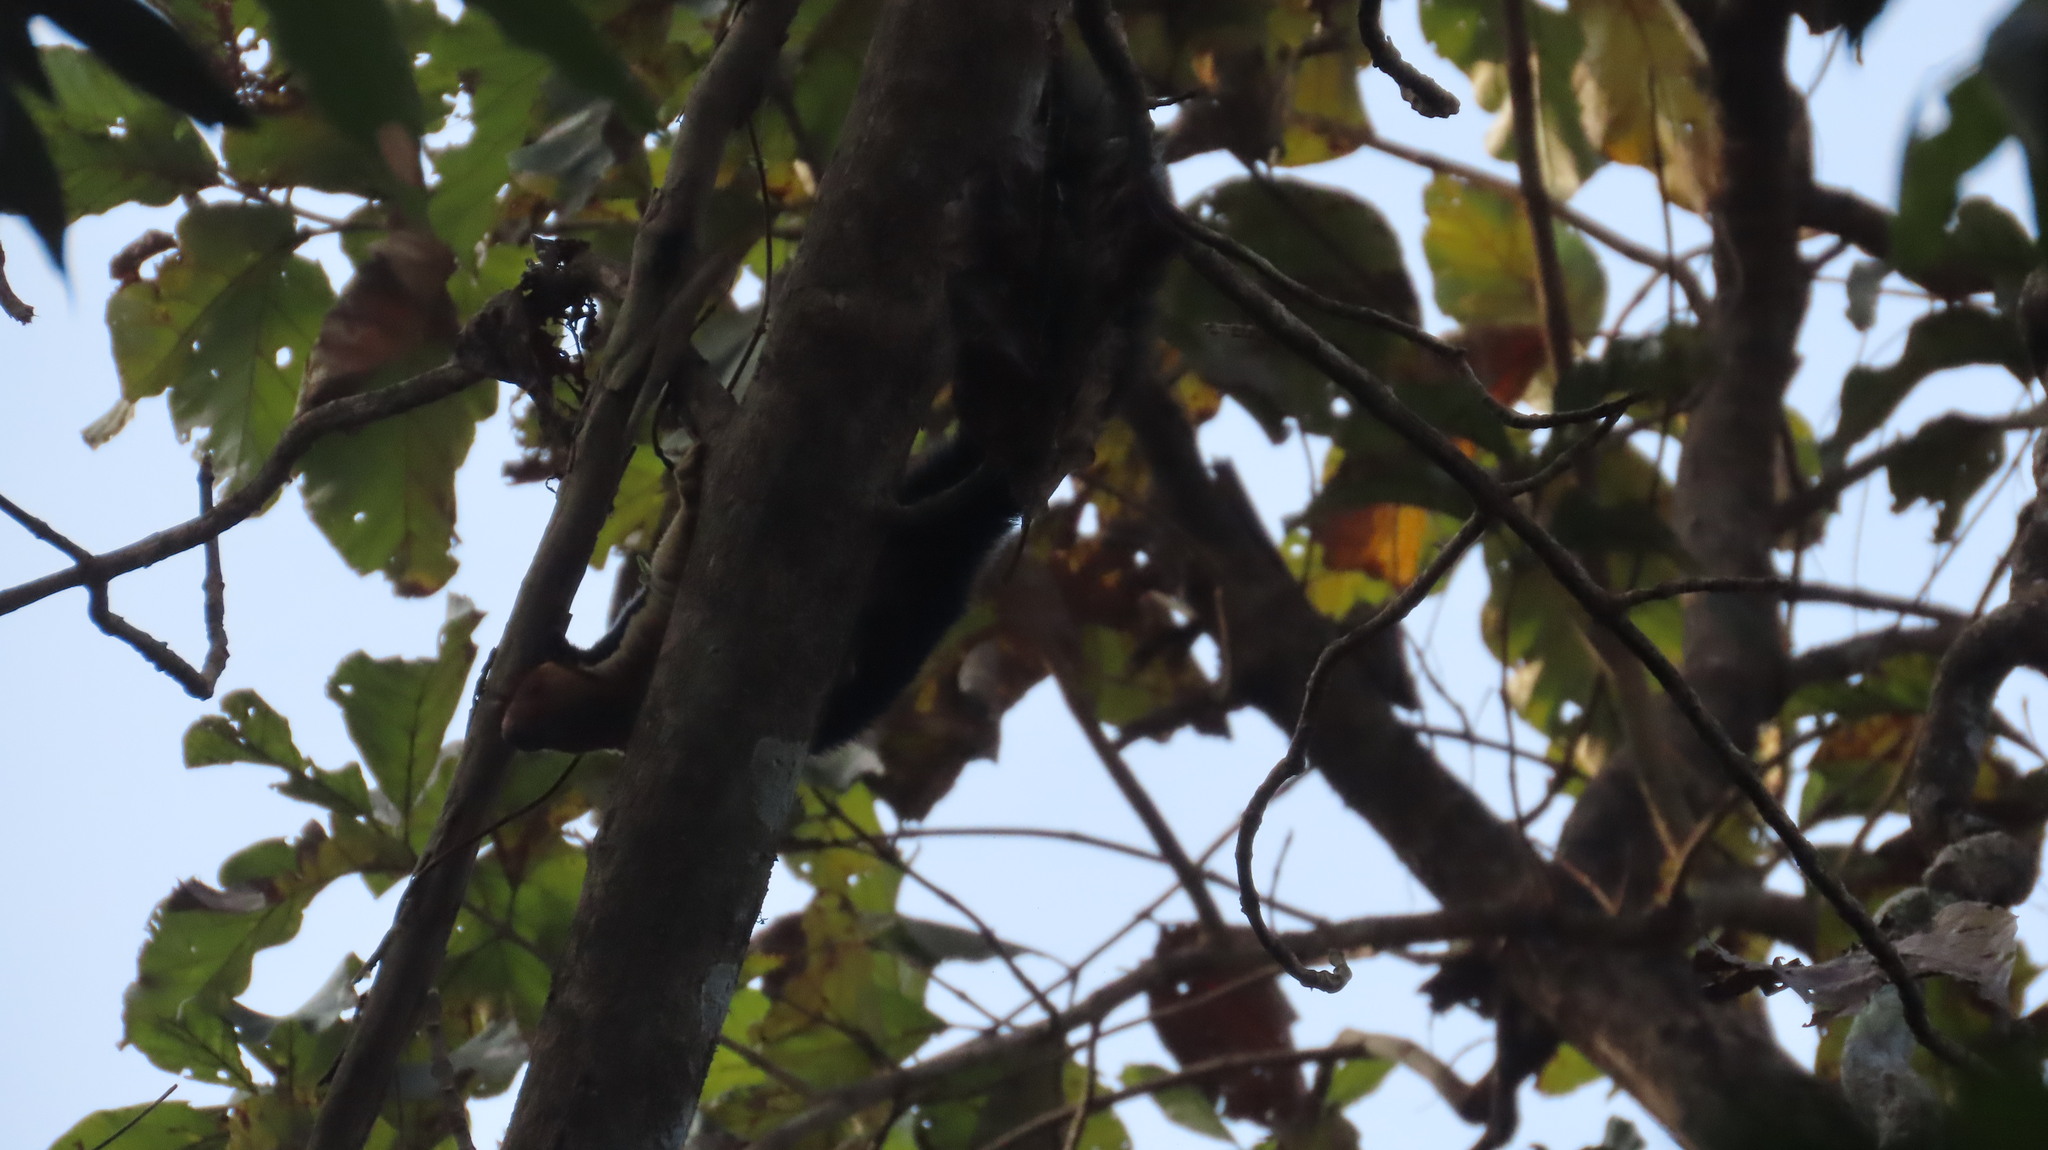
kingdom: Animalia
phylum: Chordata
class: Mammalia
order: Rodentia
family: Sciuridae
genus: Ratufa
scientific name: Ratufa indica
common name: Indian giant squirrel
